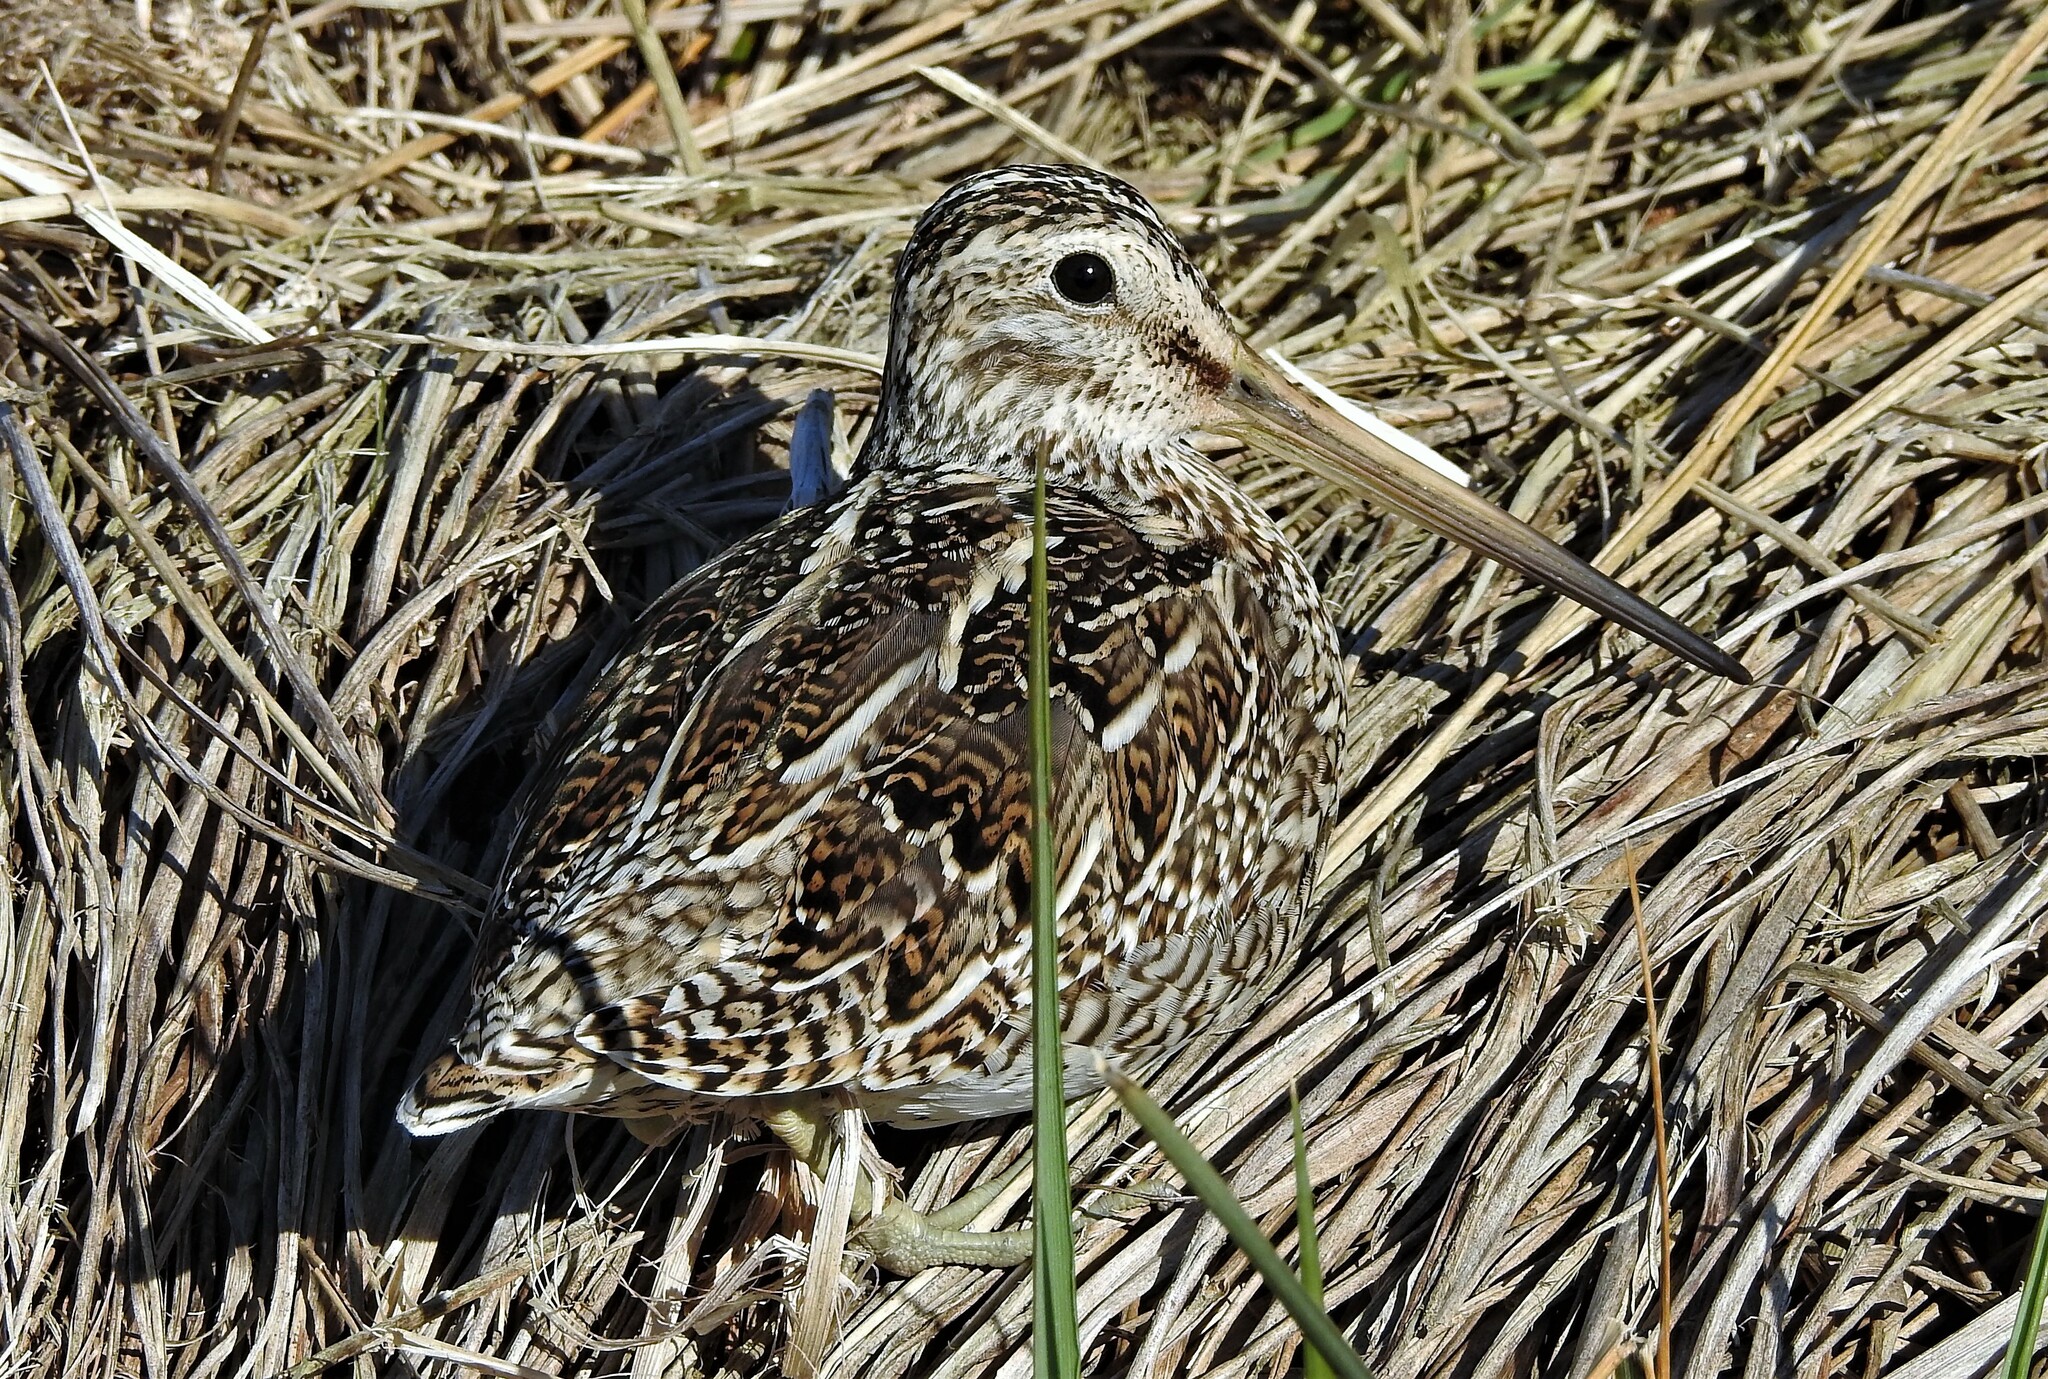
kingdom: Animalia
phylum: Chordata
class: Aves
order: Charadriiformes
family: Scolopacidae
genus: Gallinago
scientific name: Gallinago magellanica
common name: Magellanic snipe
